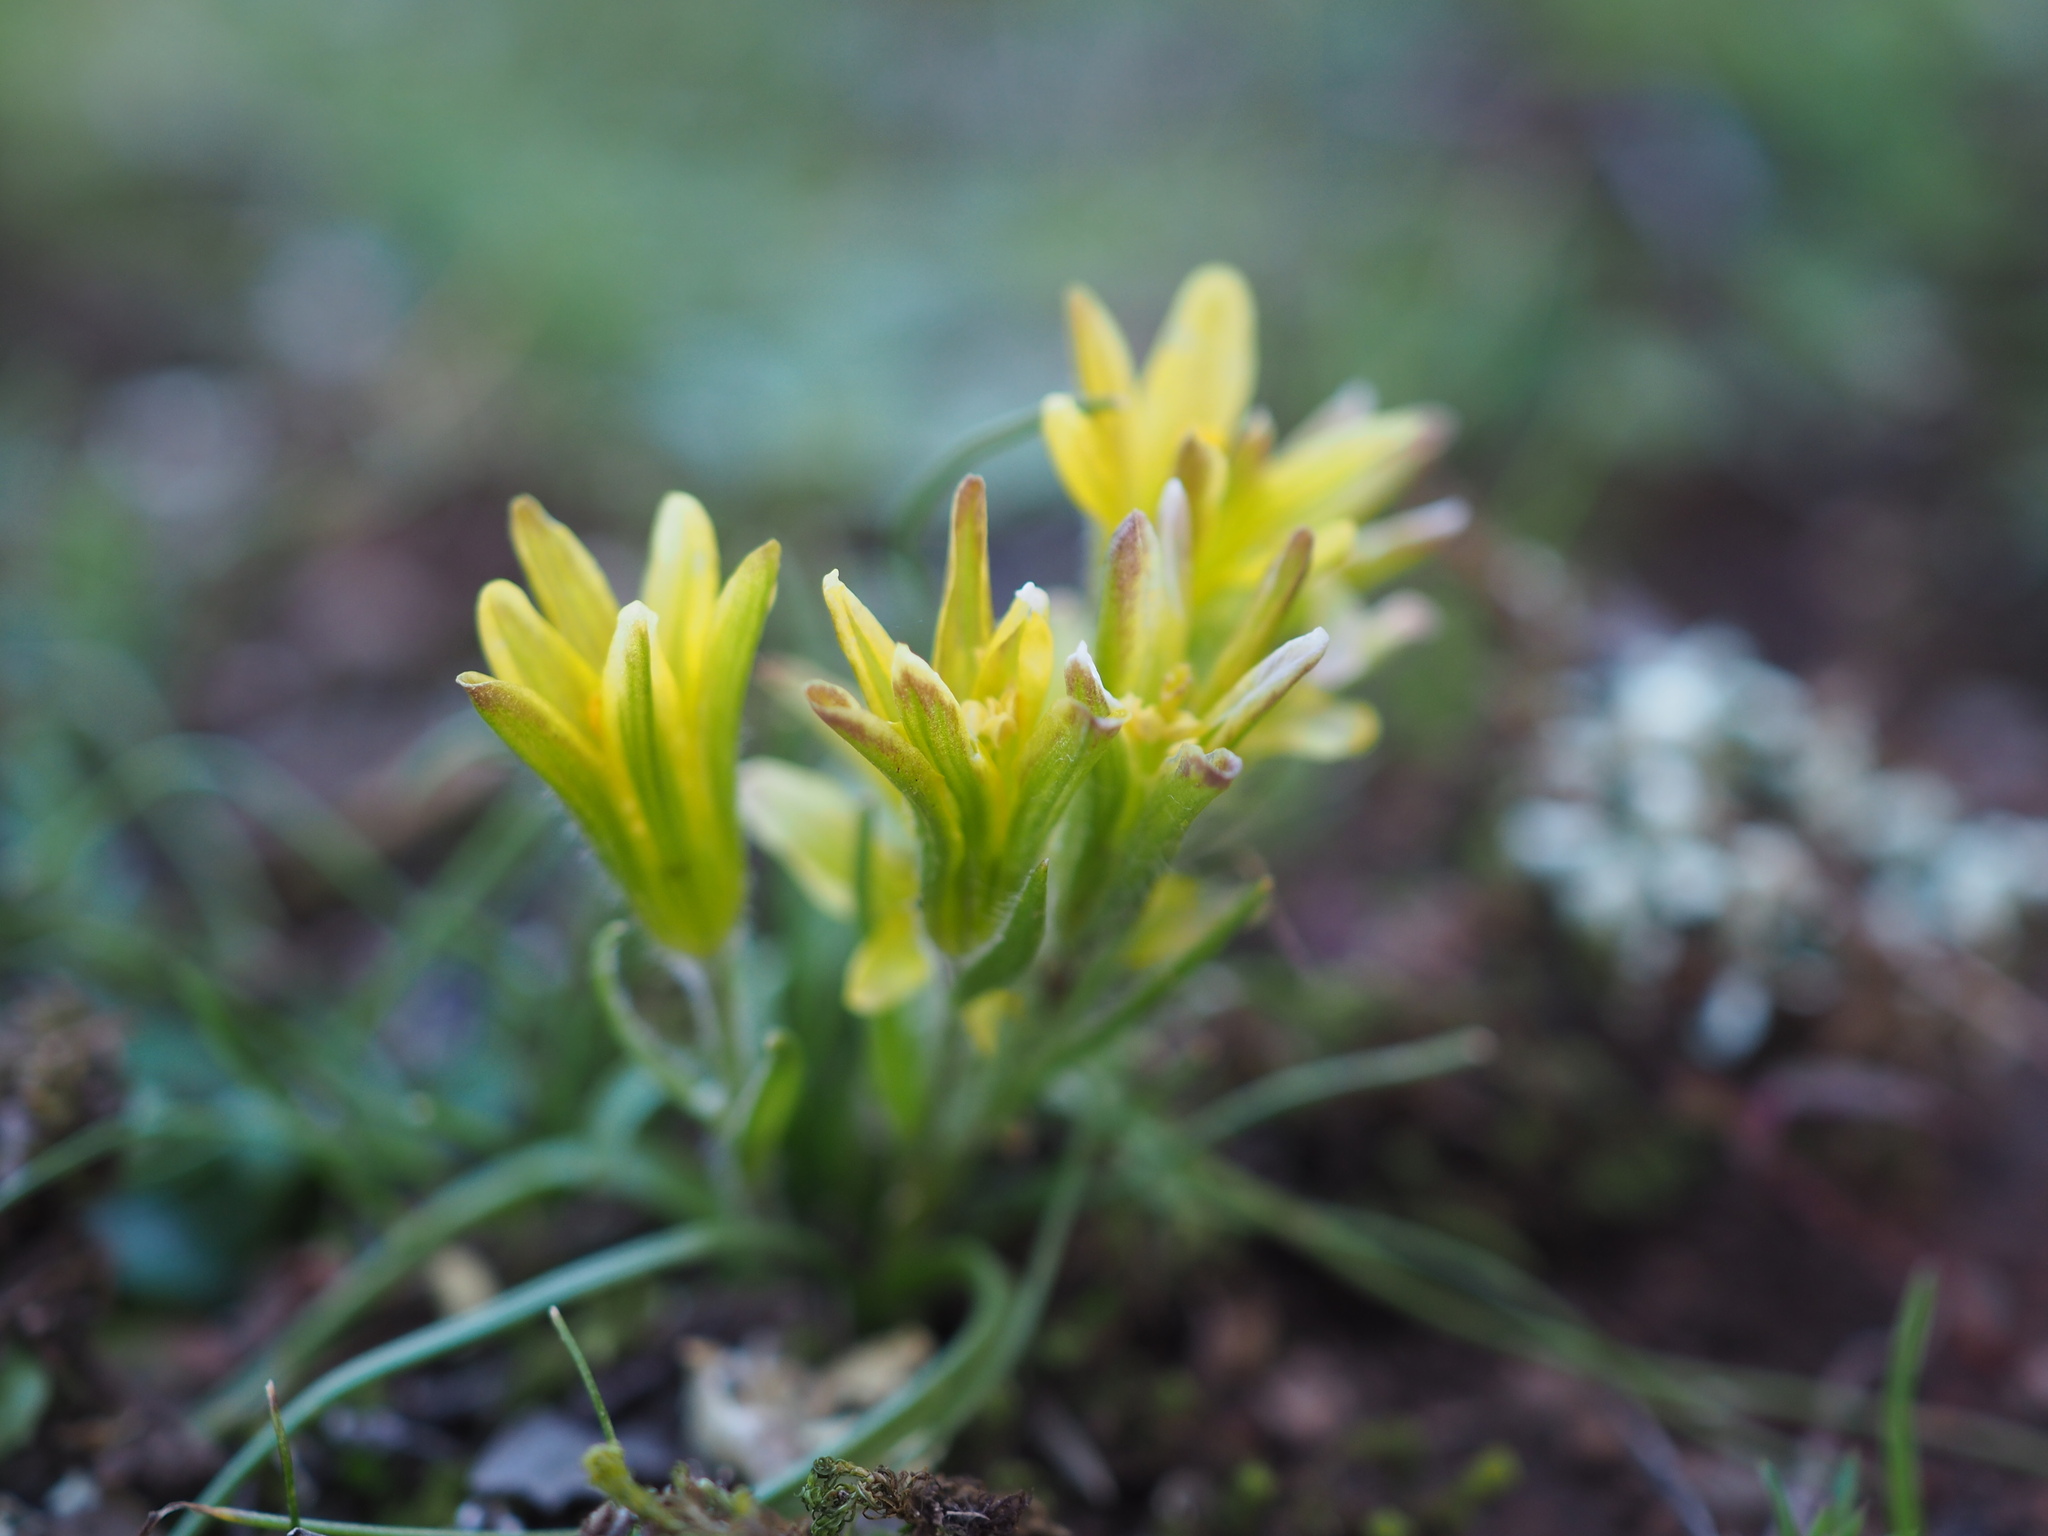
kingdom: Plantae
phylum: Tracheophyta
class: Liliopsida
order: Liliales
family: Liliaceae
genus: Gagea
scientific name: Gagea bohemica
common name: Early star-of-bethlehem
